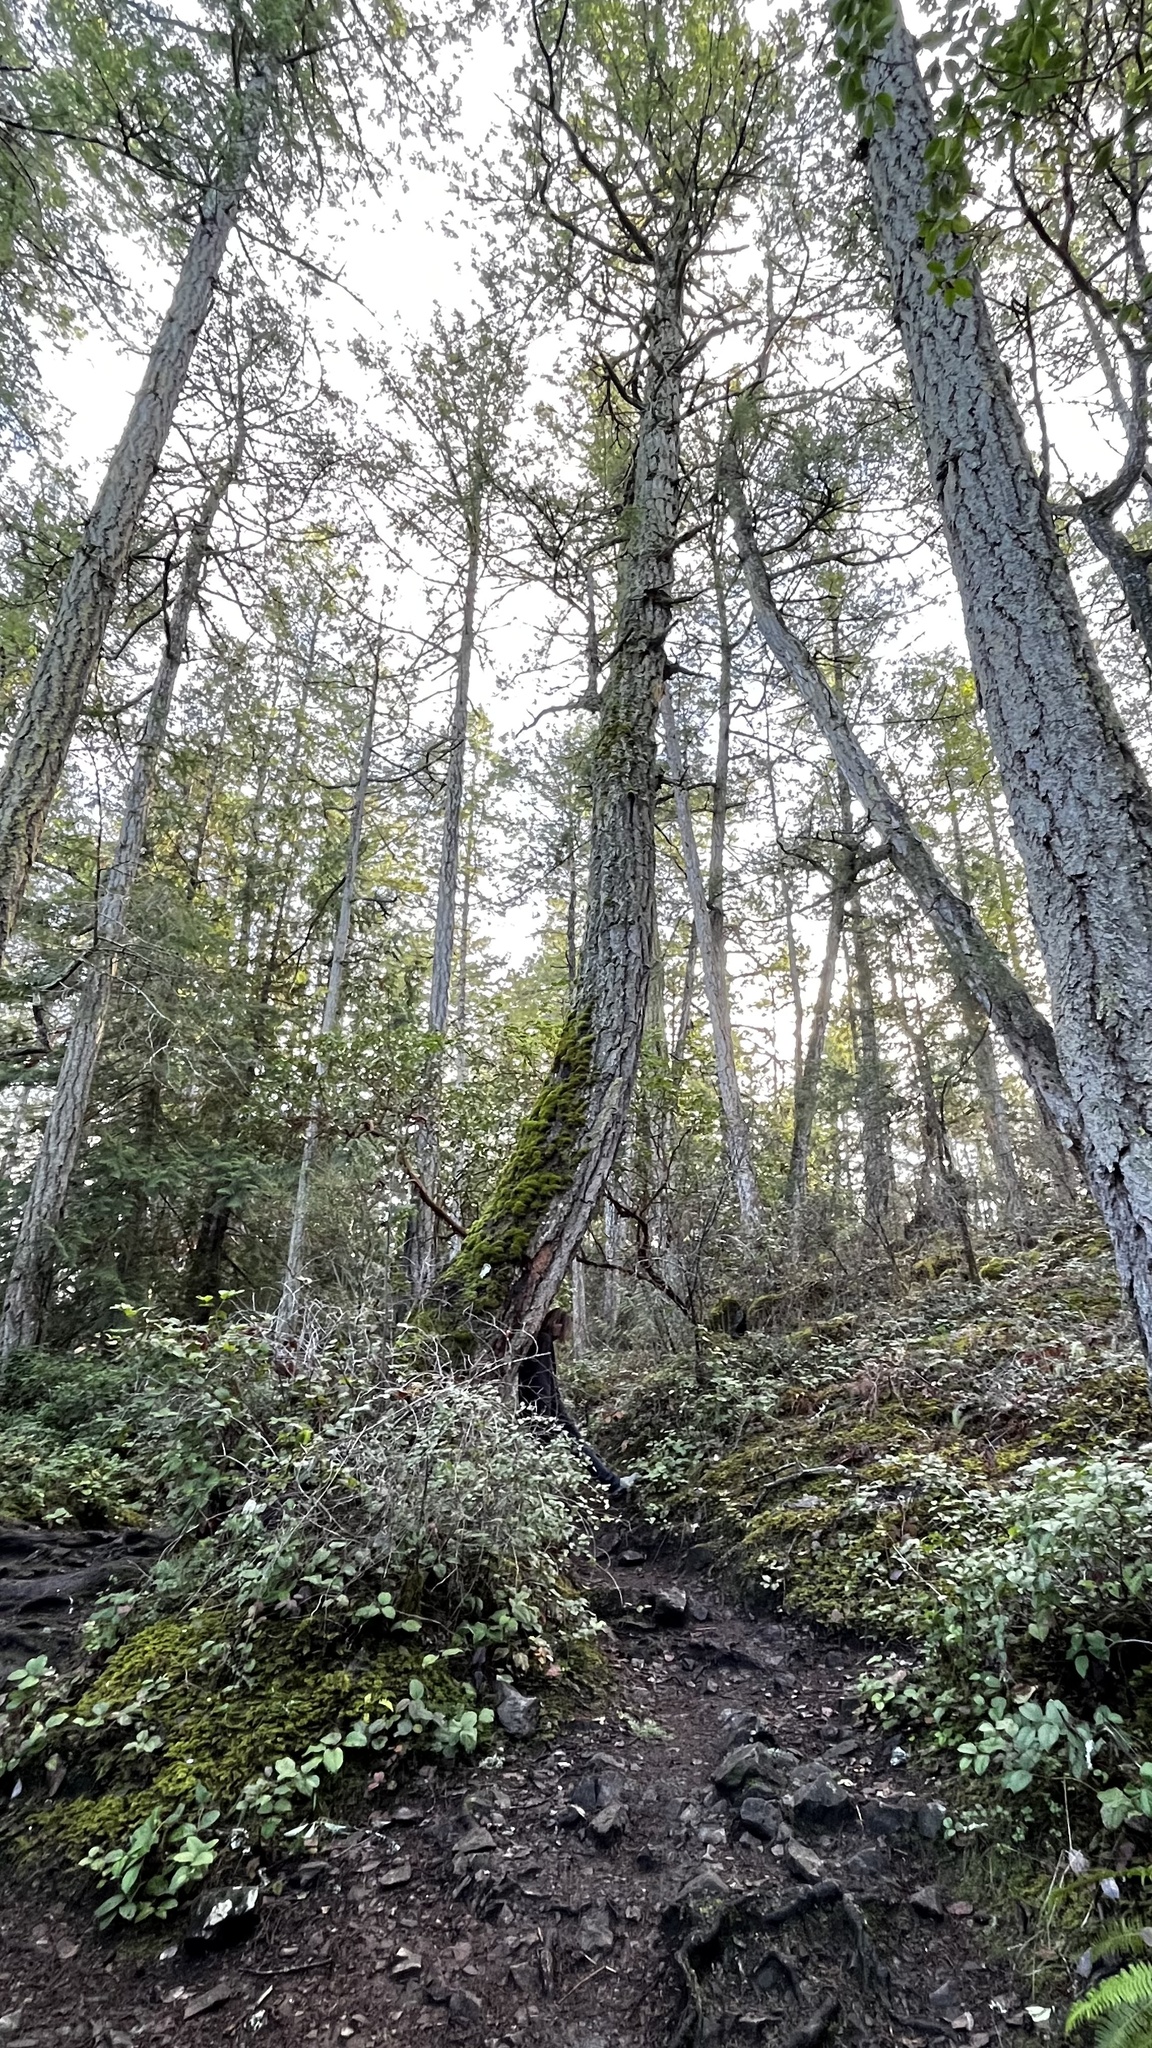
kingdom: Plantae
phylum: Tracheophyta
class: Pinopsida
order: Pinales
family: Pinaceae
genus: Pseudotsuga
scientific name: Pseudotsuga menziesii
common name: Douglas fir
